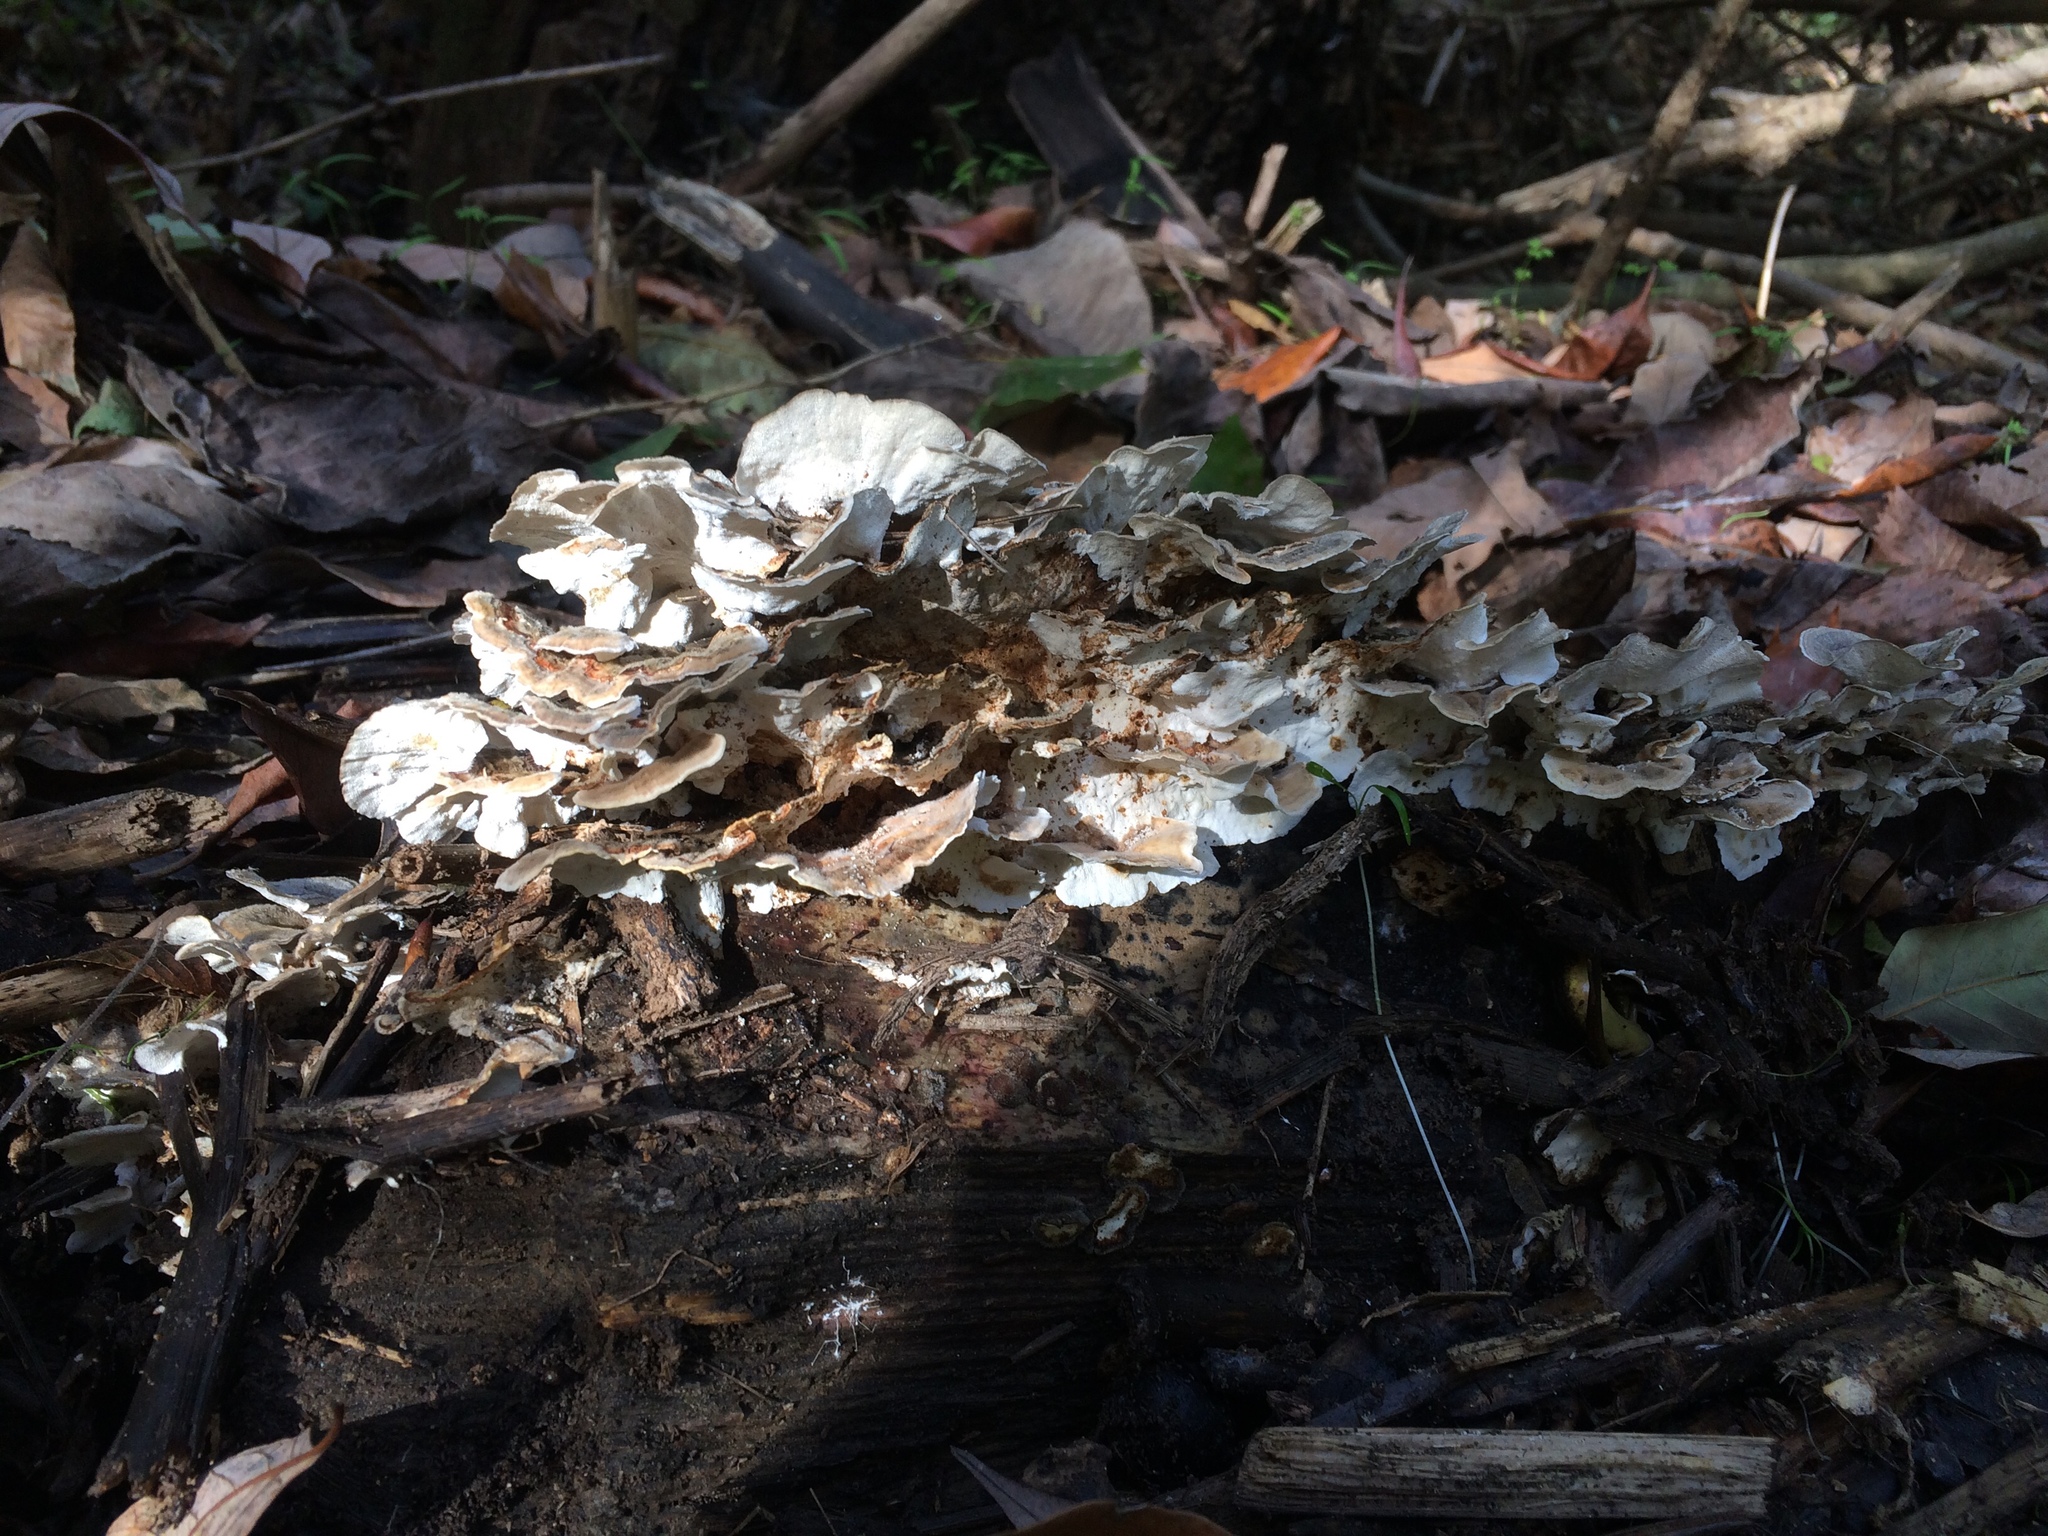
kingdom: Fungi
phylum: Basidiomycota
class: Agaricomycetes
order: Polyporales
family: Polyporaceae
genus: Trametes
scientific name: Trametes versicolor
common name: Turkeytail
